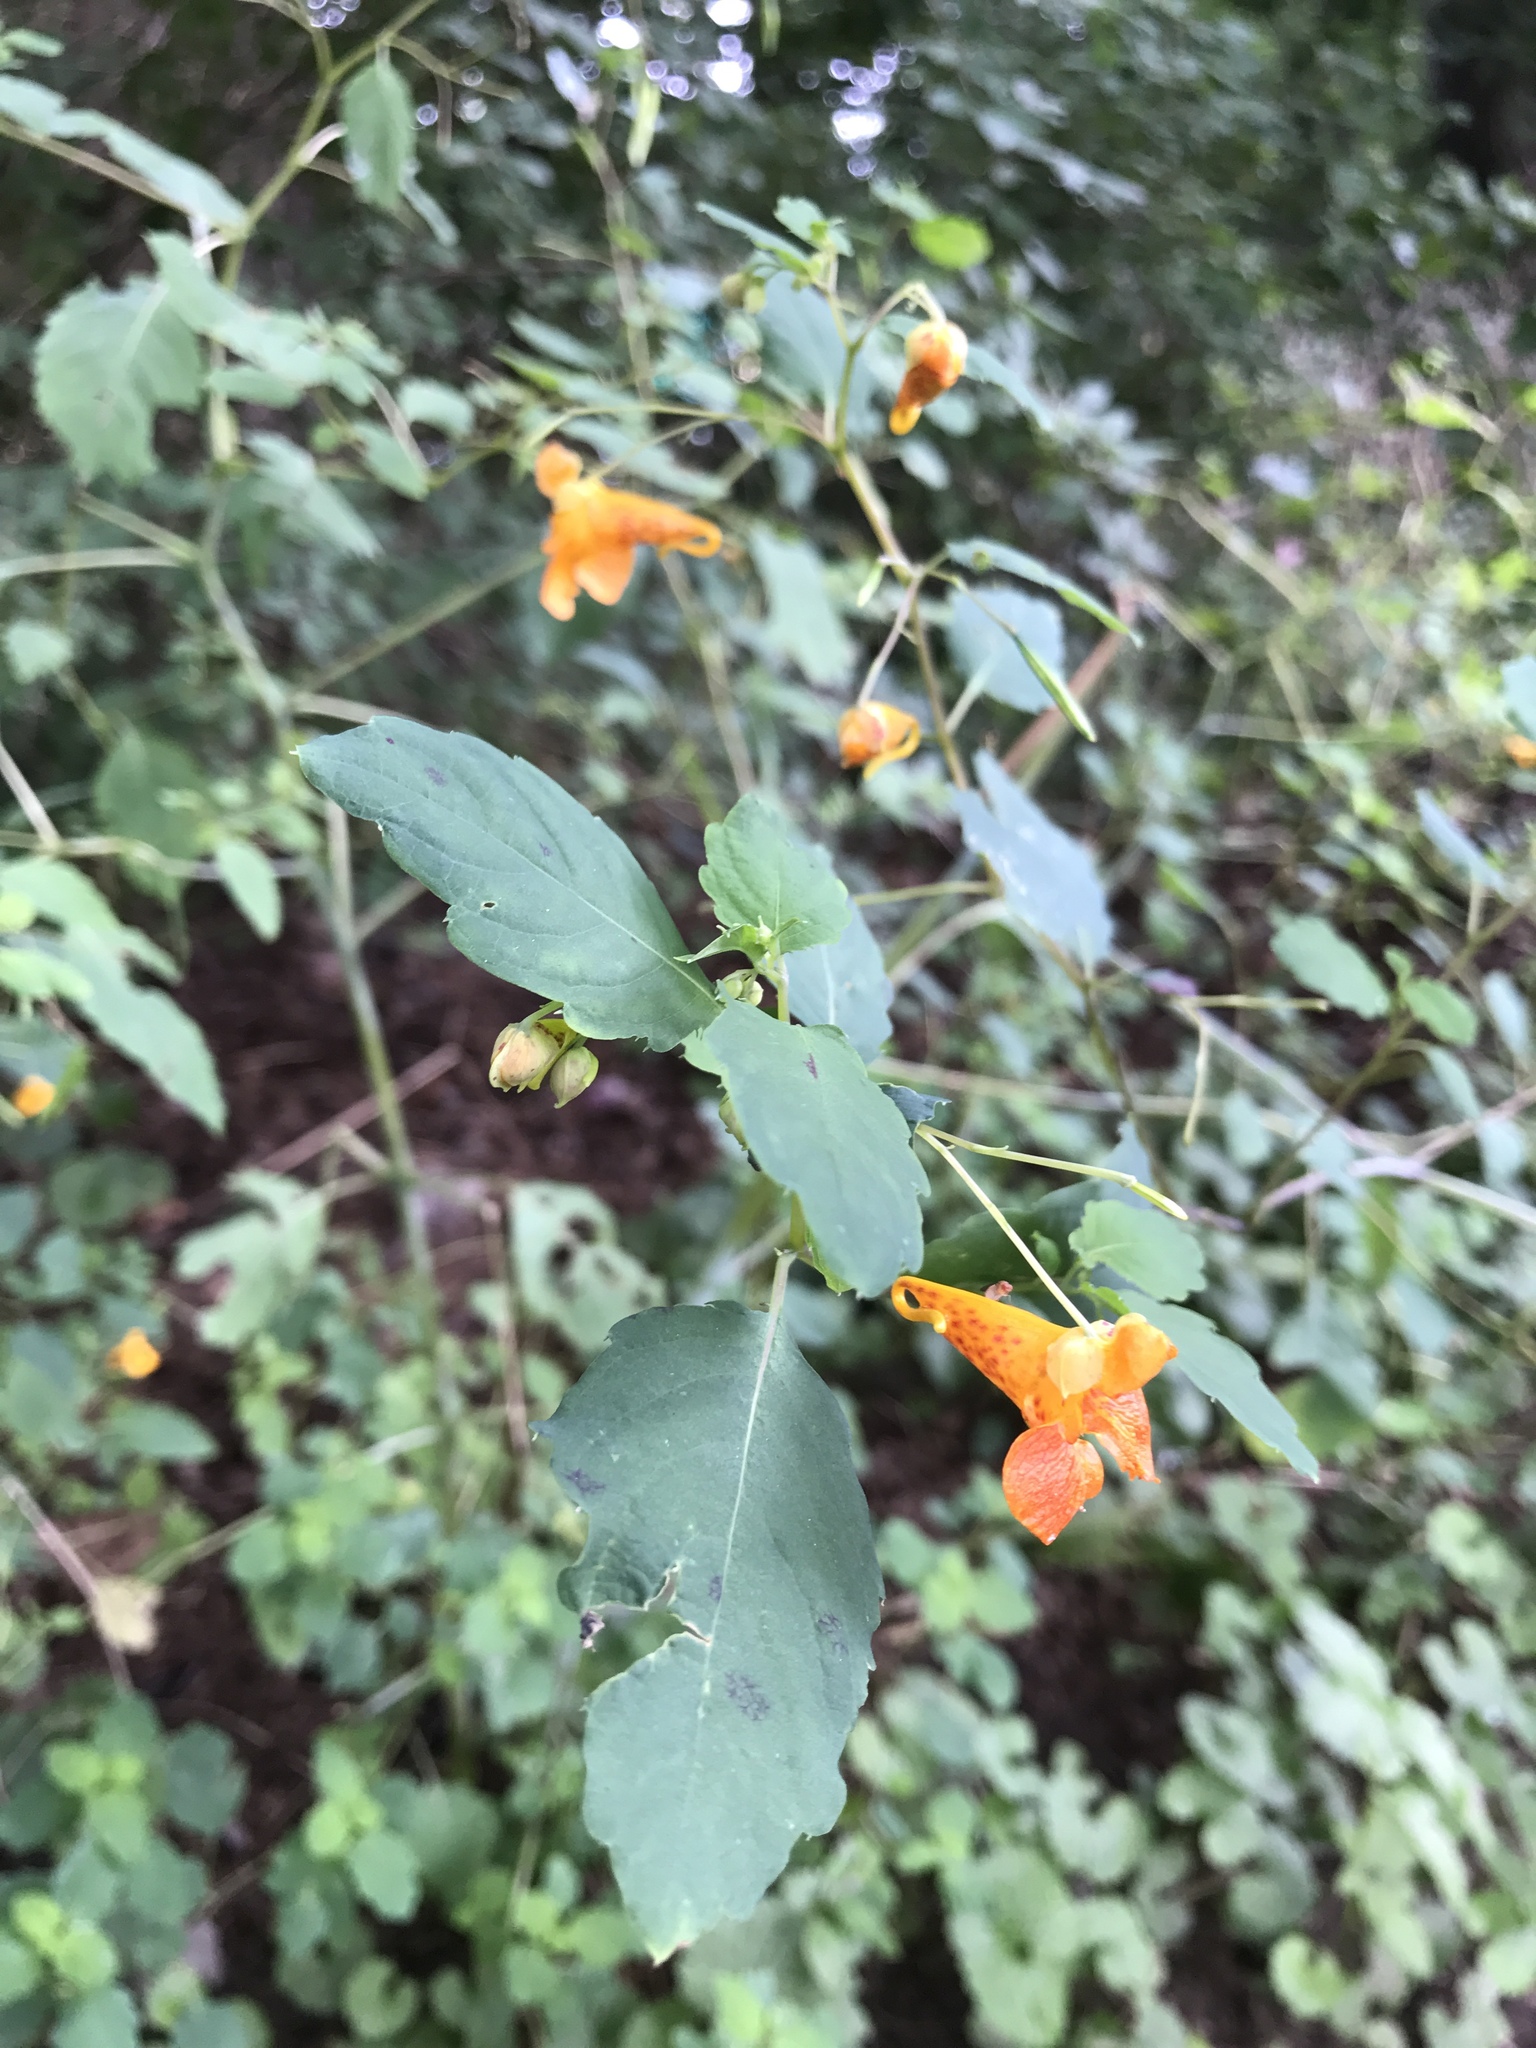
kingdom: Plantae
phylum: Tracheophyta
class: Magnoliopsida
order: Ericales
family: Balsaminaceae
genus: Impatiens
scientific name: Impatiens capensis
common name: Orange balsam
